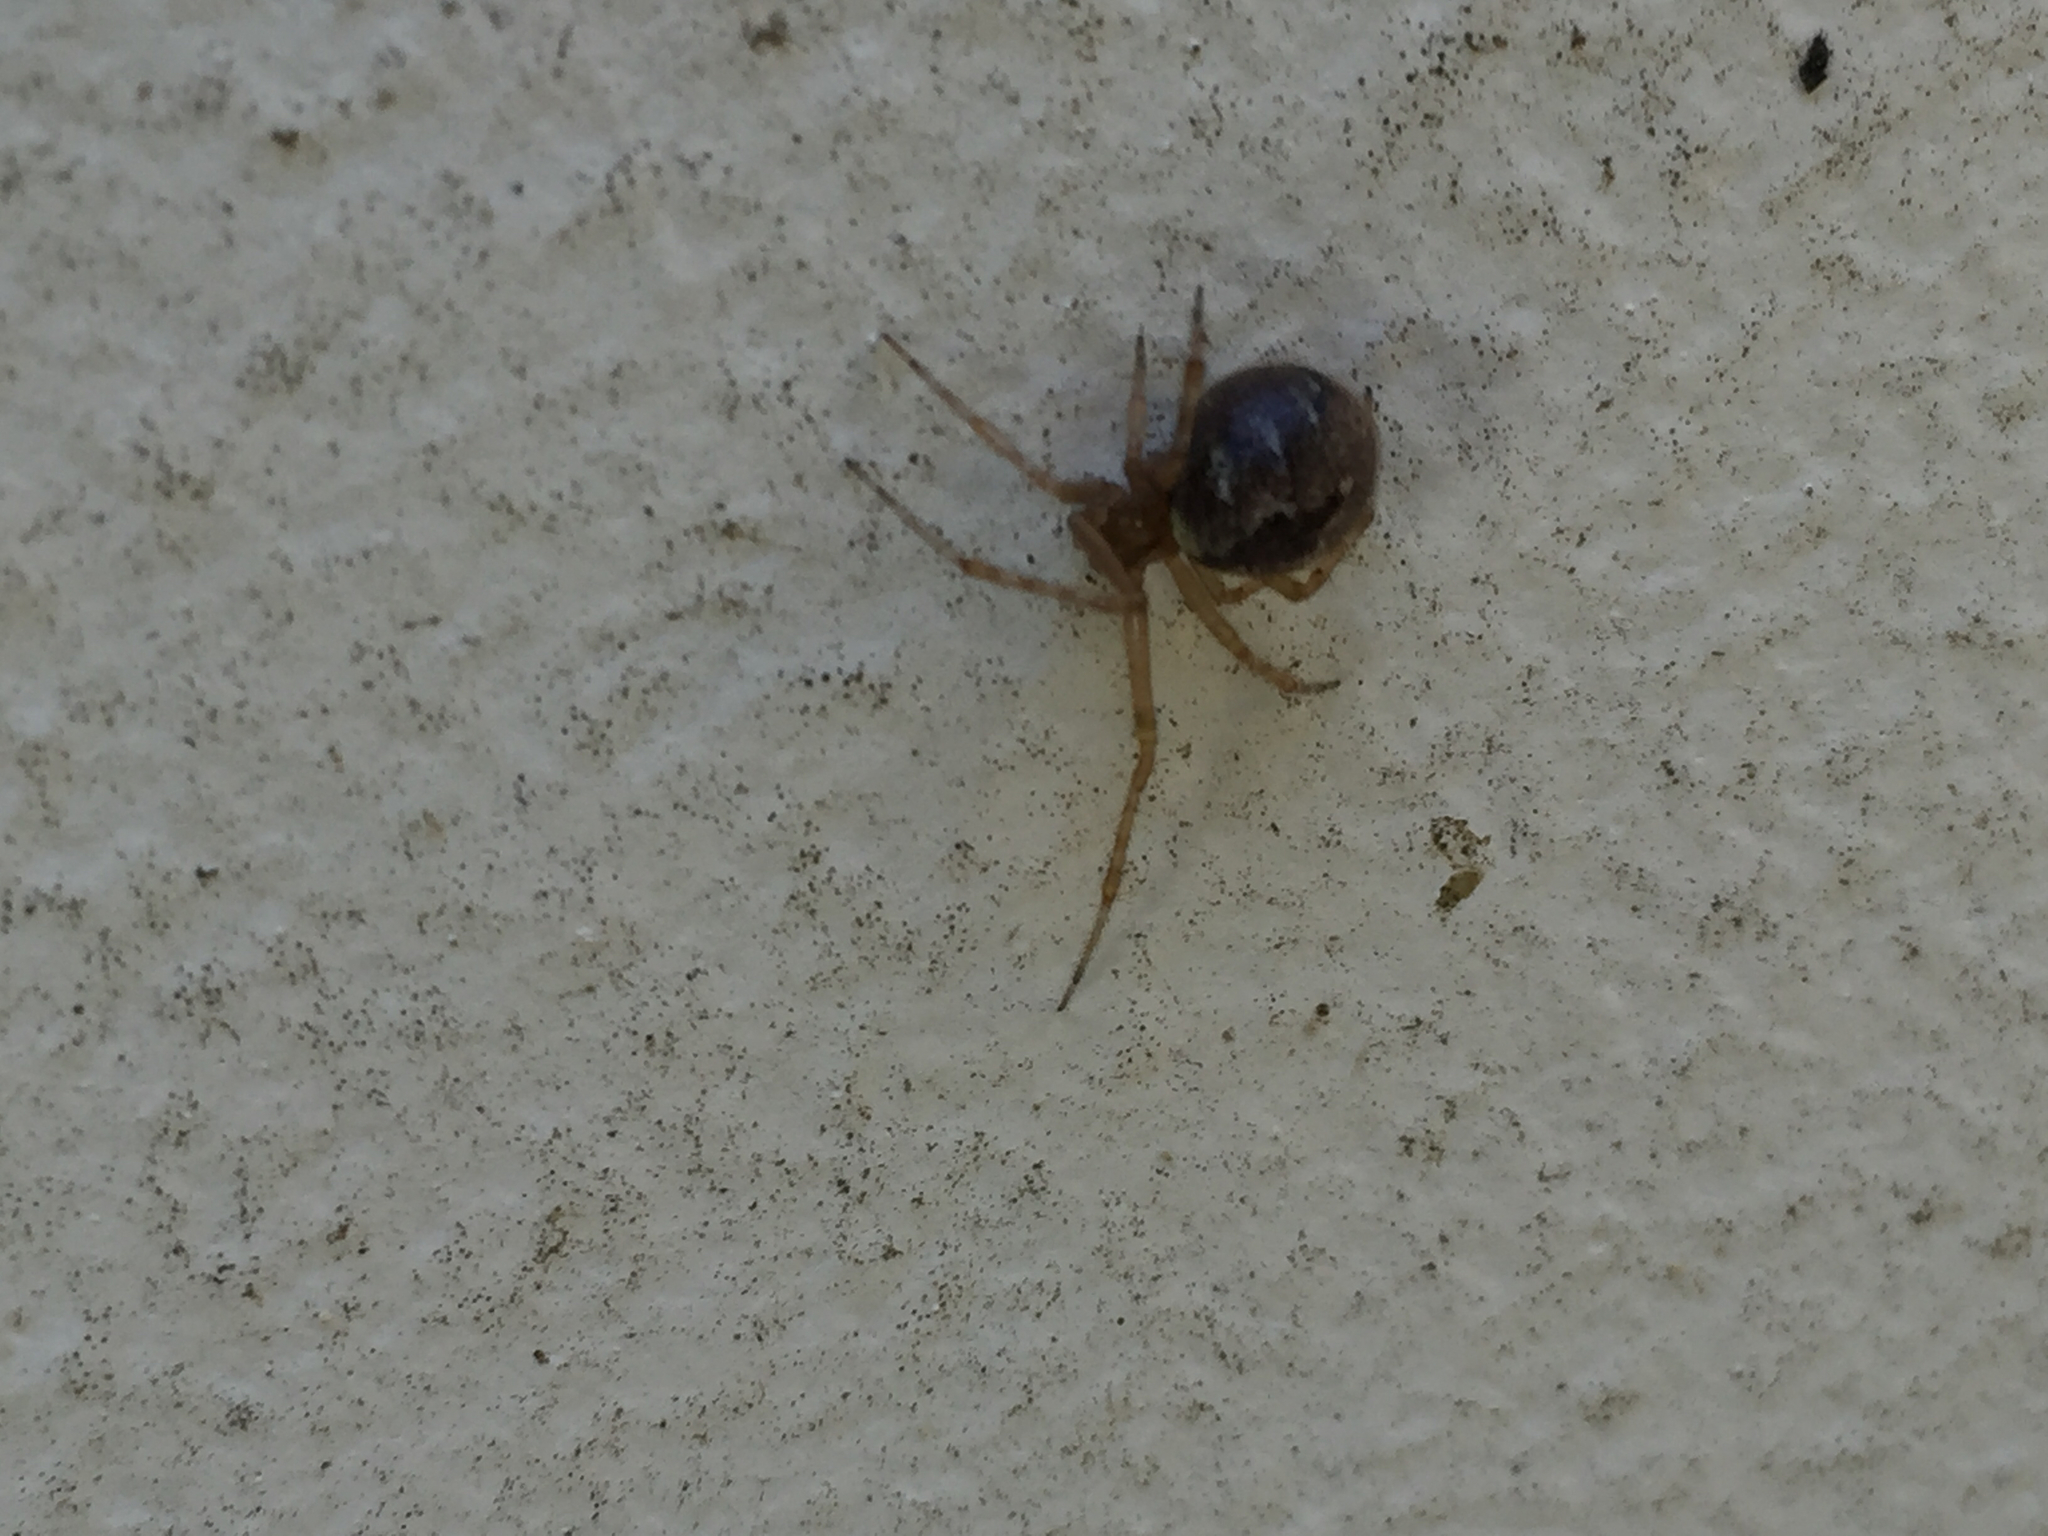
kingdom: Animalia
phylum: Arthropoda
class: Arachnida
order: Araneae
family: Theridiidae
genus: Cryptachaea
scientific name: Cryptachaea veruculata
